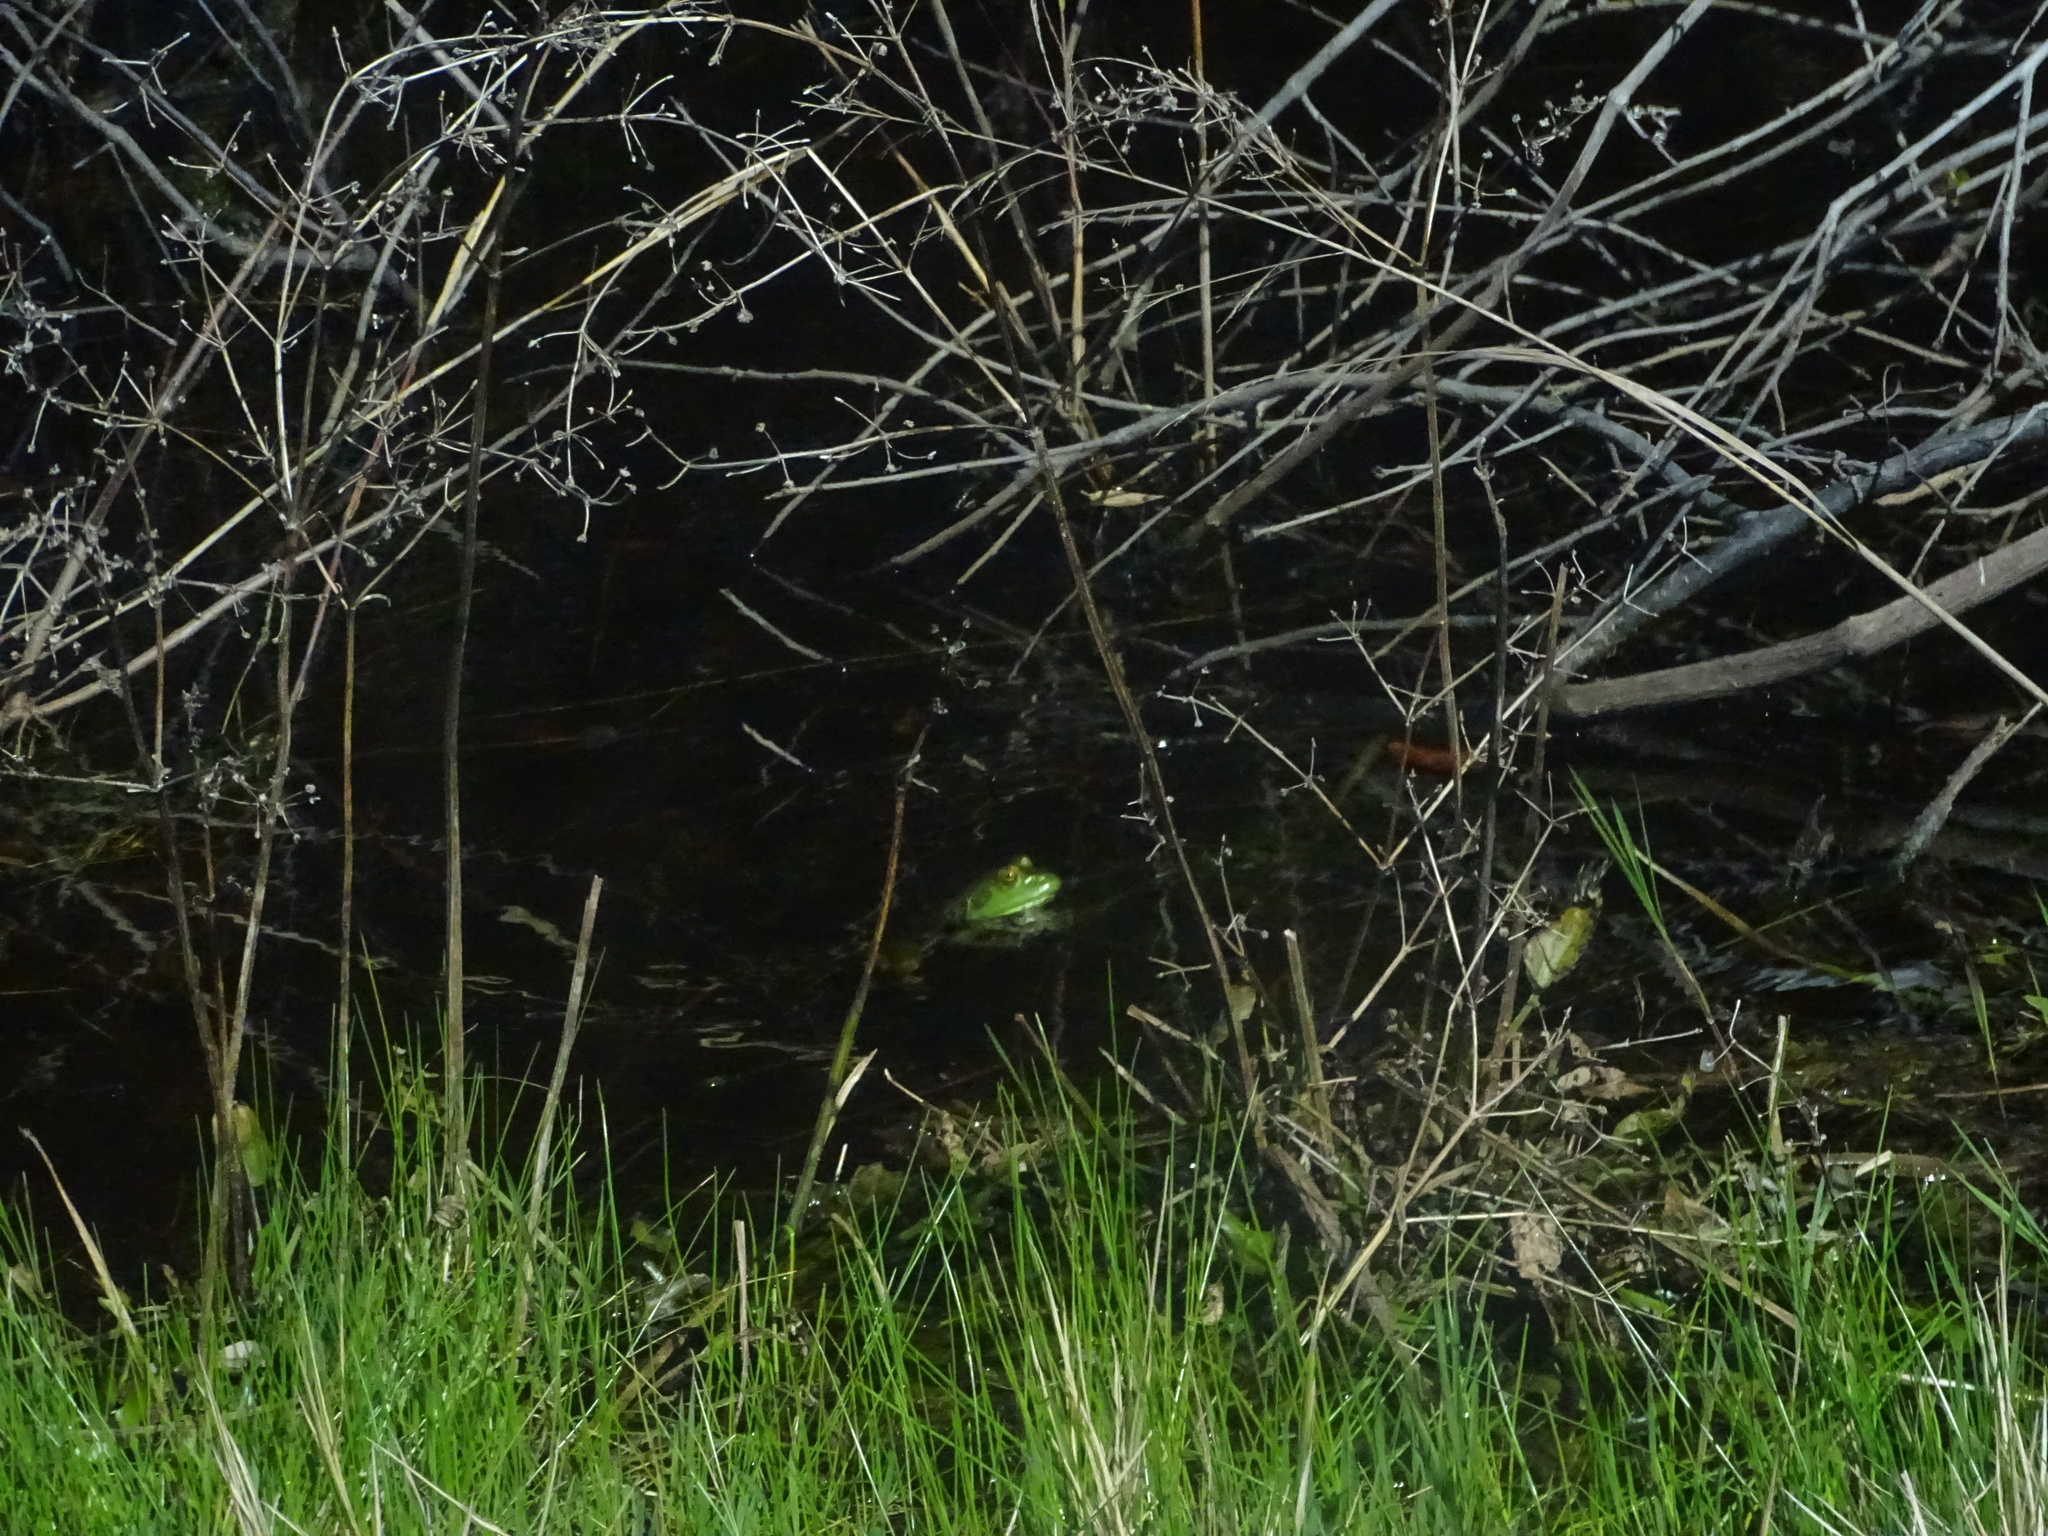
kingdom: Animalia
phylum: Chordata
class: Amphibia
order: Anura
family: Ranidae
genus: Lithobates
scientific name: Lithobates catesbeianus
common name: American bullfrog
